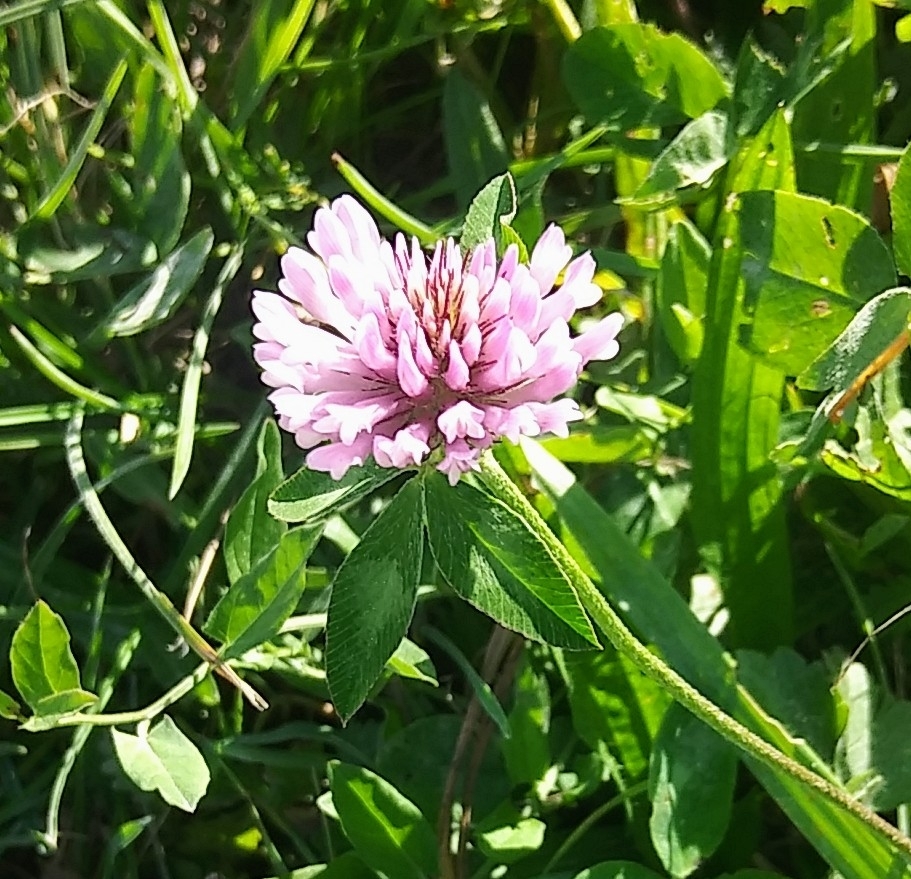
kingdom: Plantae
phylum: Tracheophyta
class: Magnoliopsida
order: Fabales
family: Fabaceae
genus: Trifolium
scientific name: Trifolium pratense
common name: Red clover
